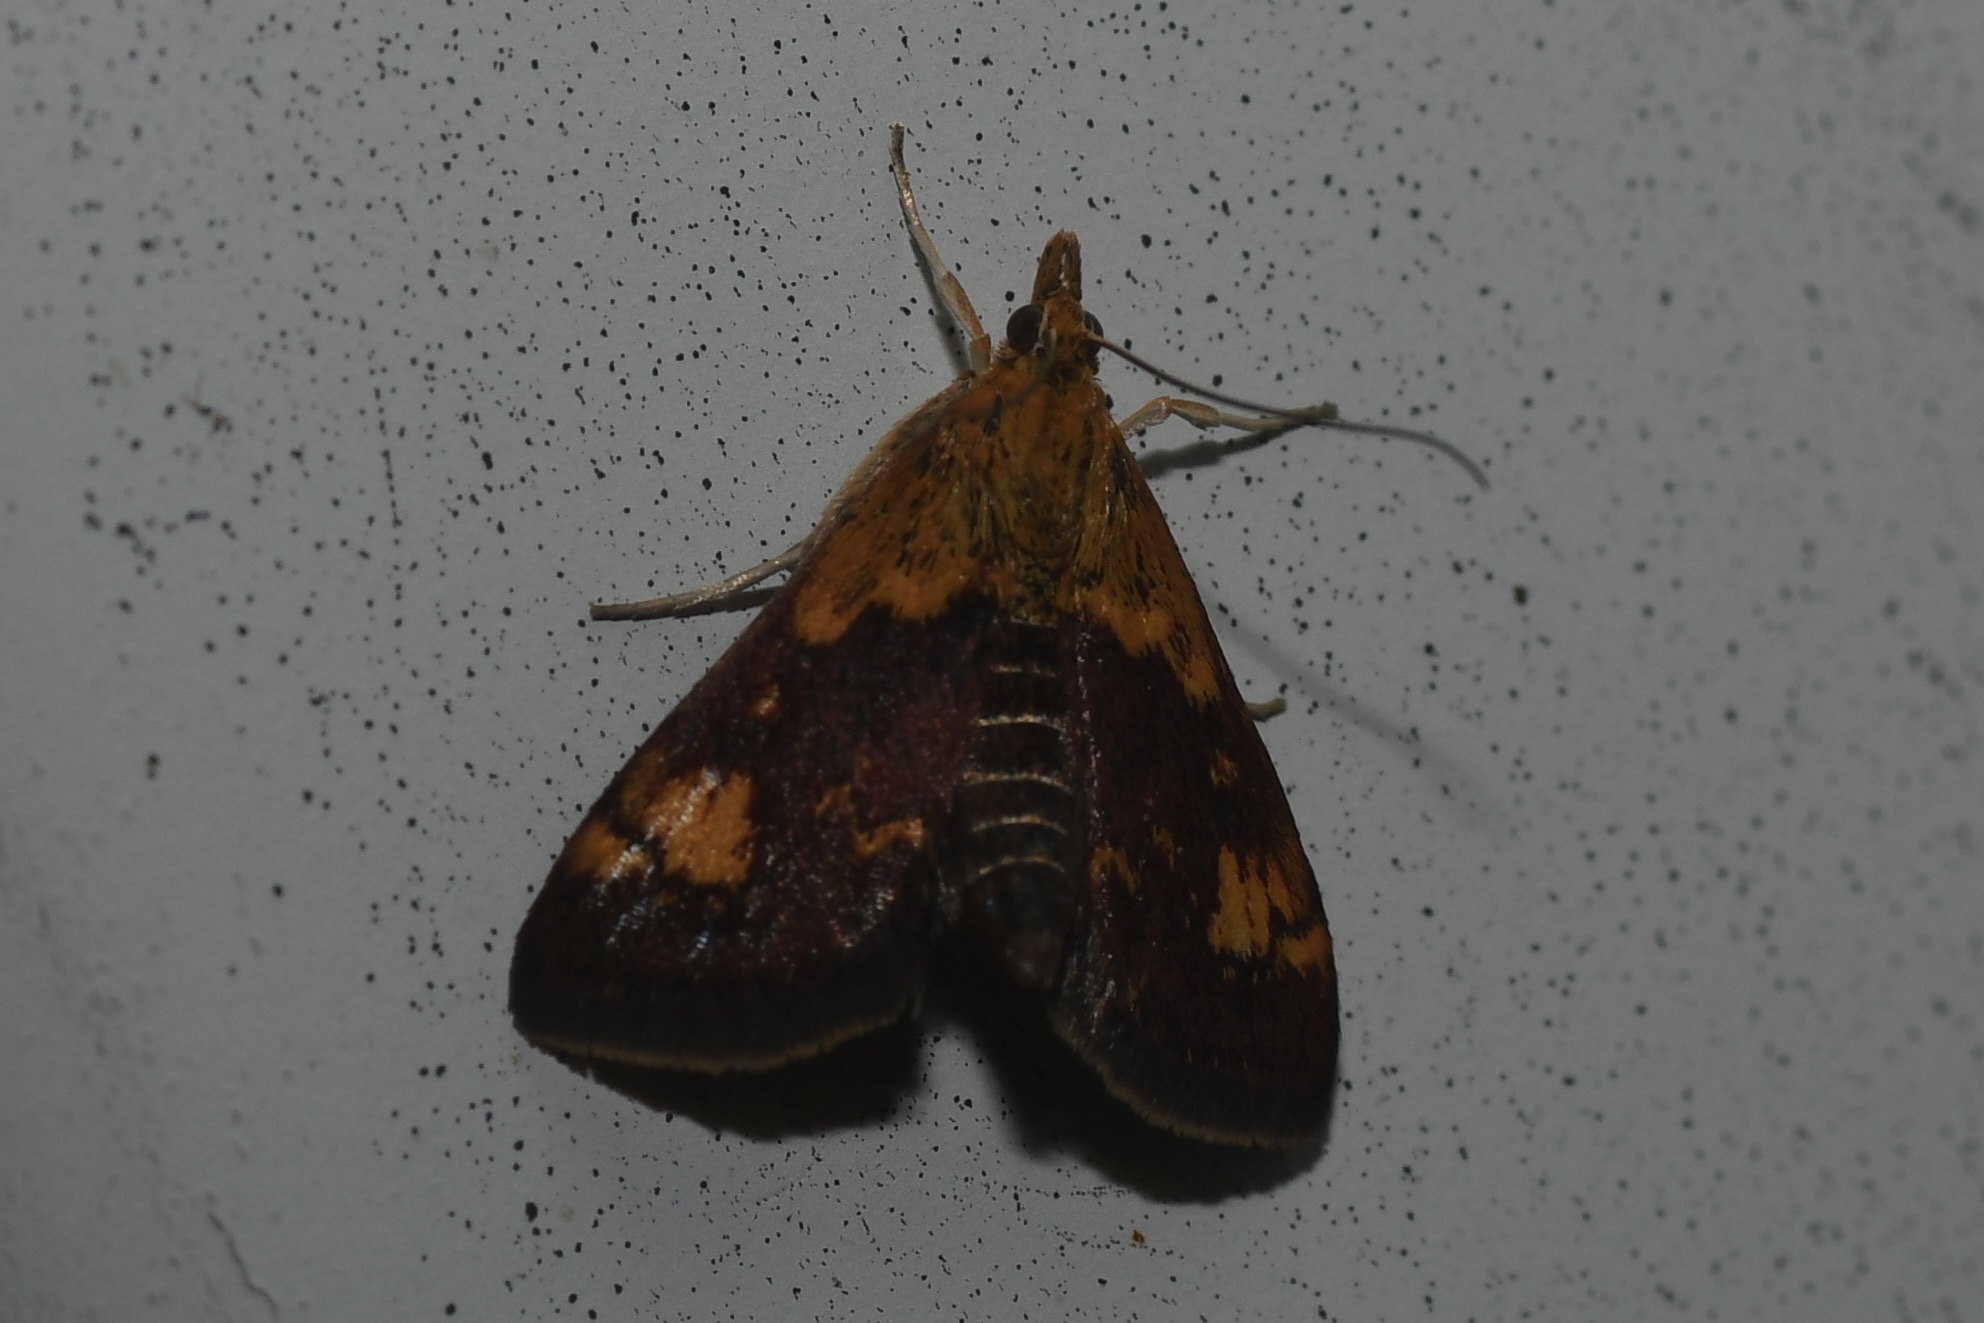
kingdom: Animalia
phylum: Arthropoda
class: Insecta
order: Lepidoptera
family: Crambidae
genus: Pyrausta
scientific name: Pyrausta orphisalis
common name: Orange mint moth
